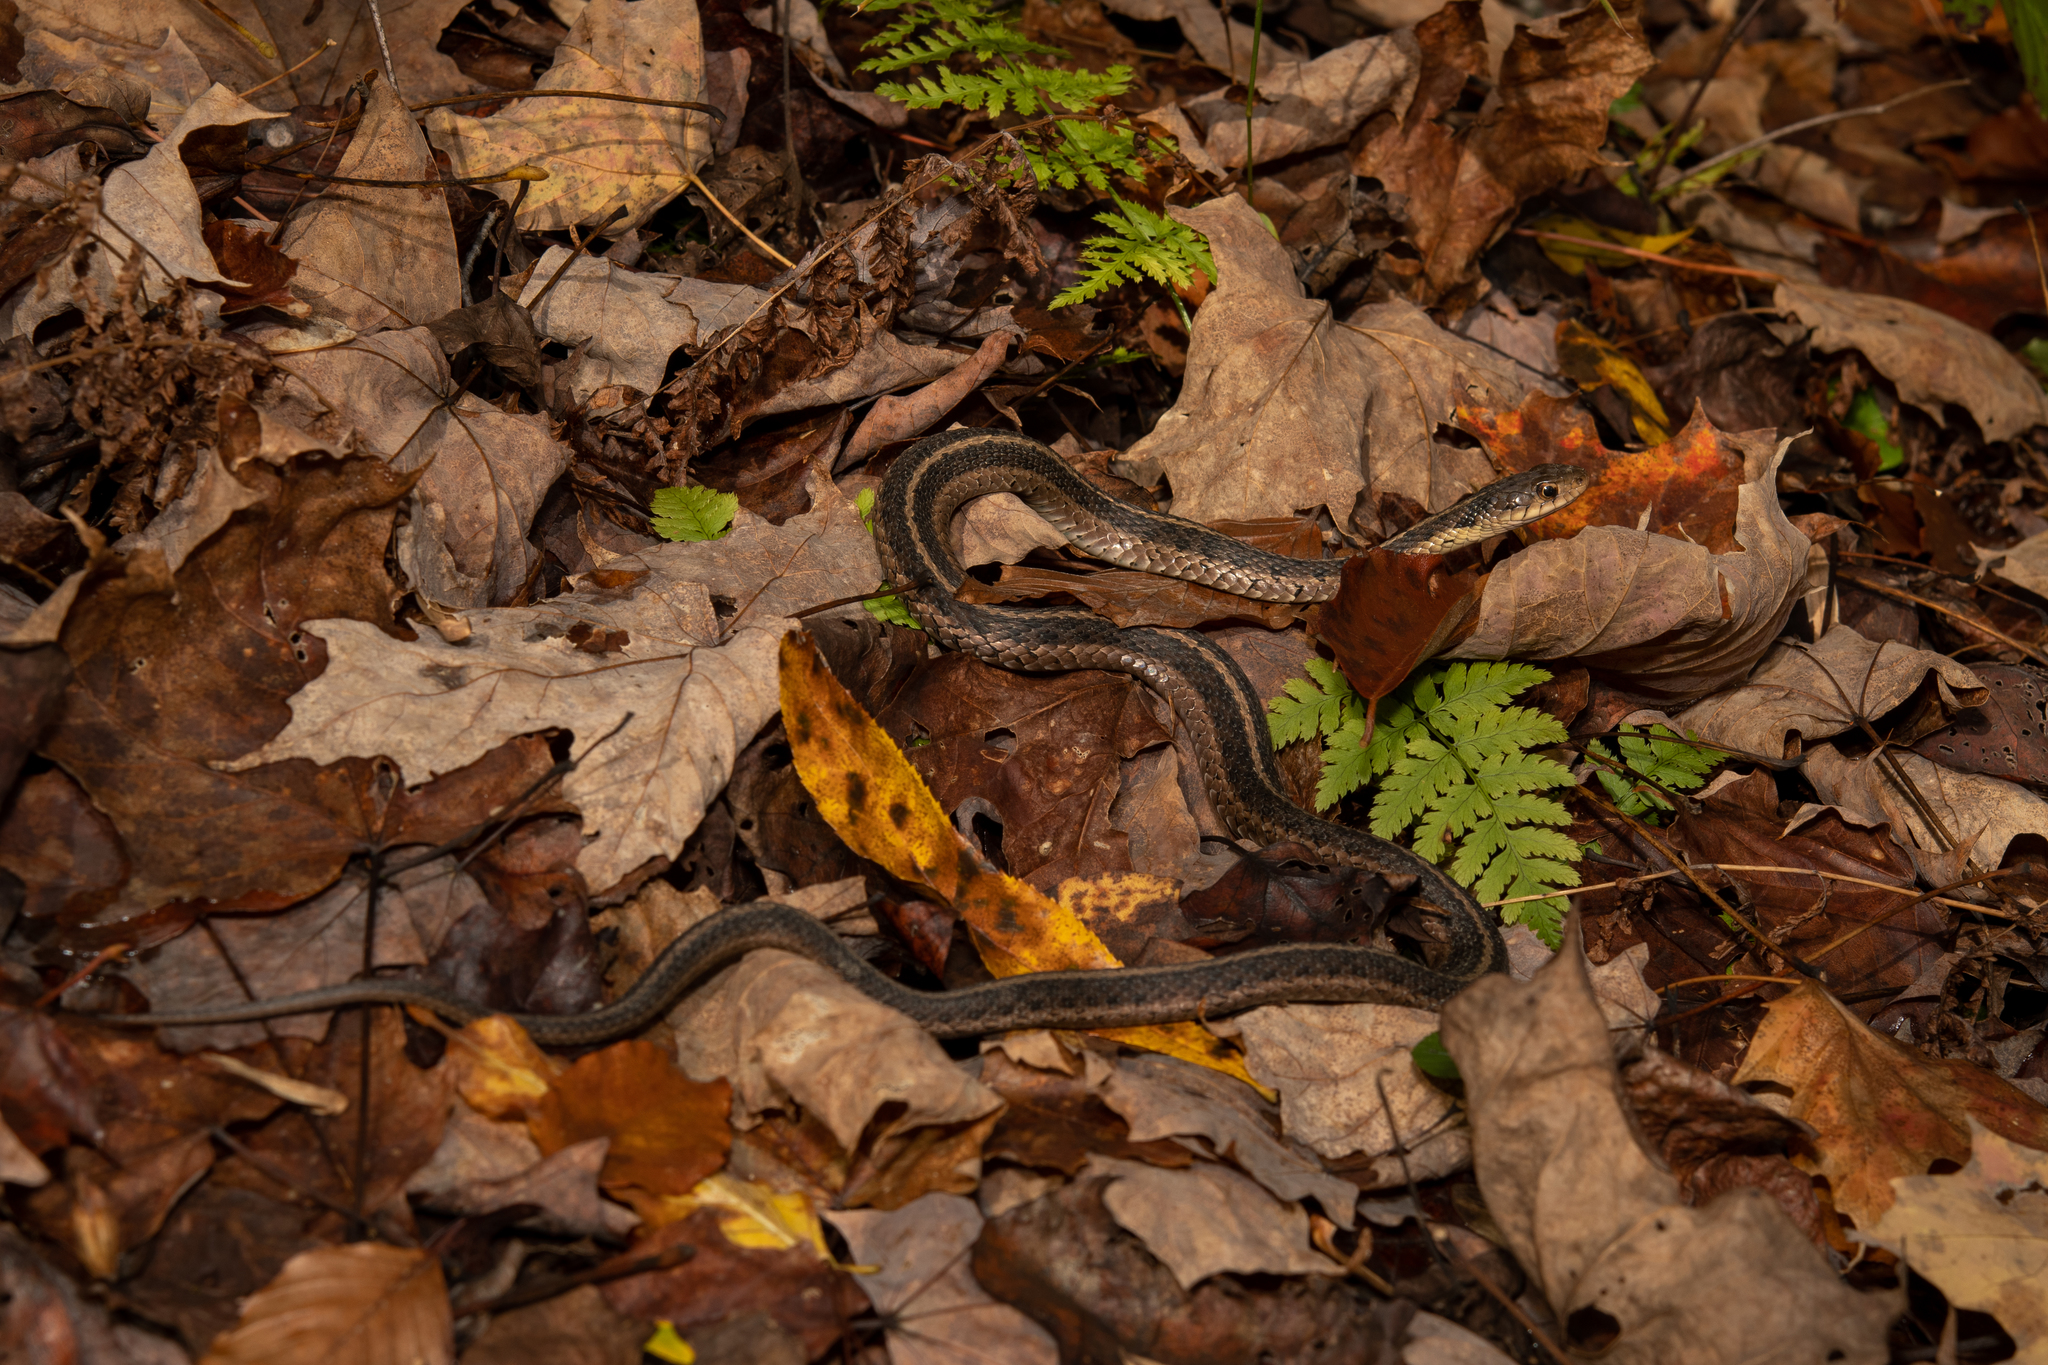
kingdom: Animalia
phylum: Chordata
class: Squamata
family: Colubridae
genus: Thamnophis
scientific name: Thamnophis sirtalis
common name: Common garter snake
